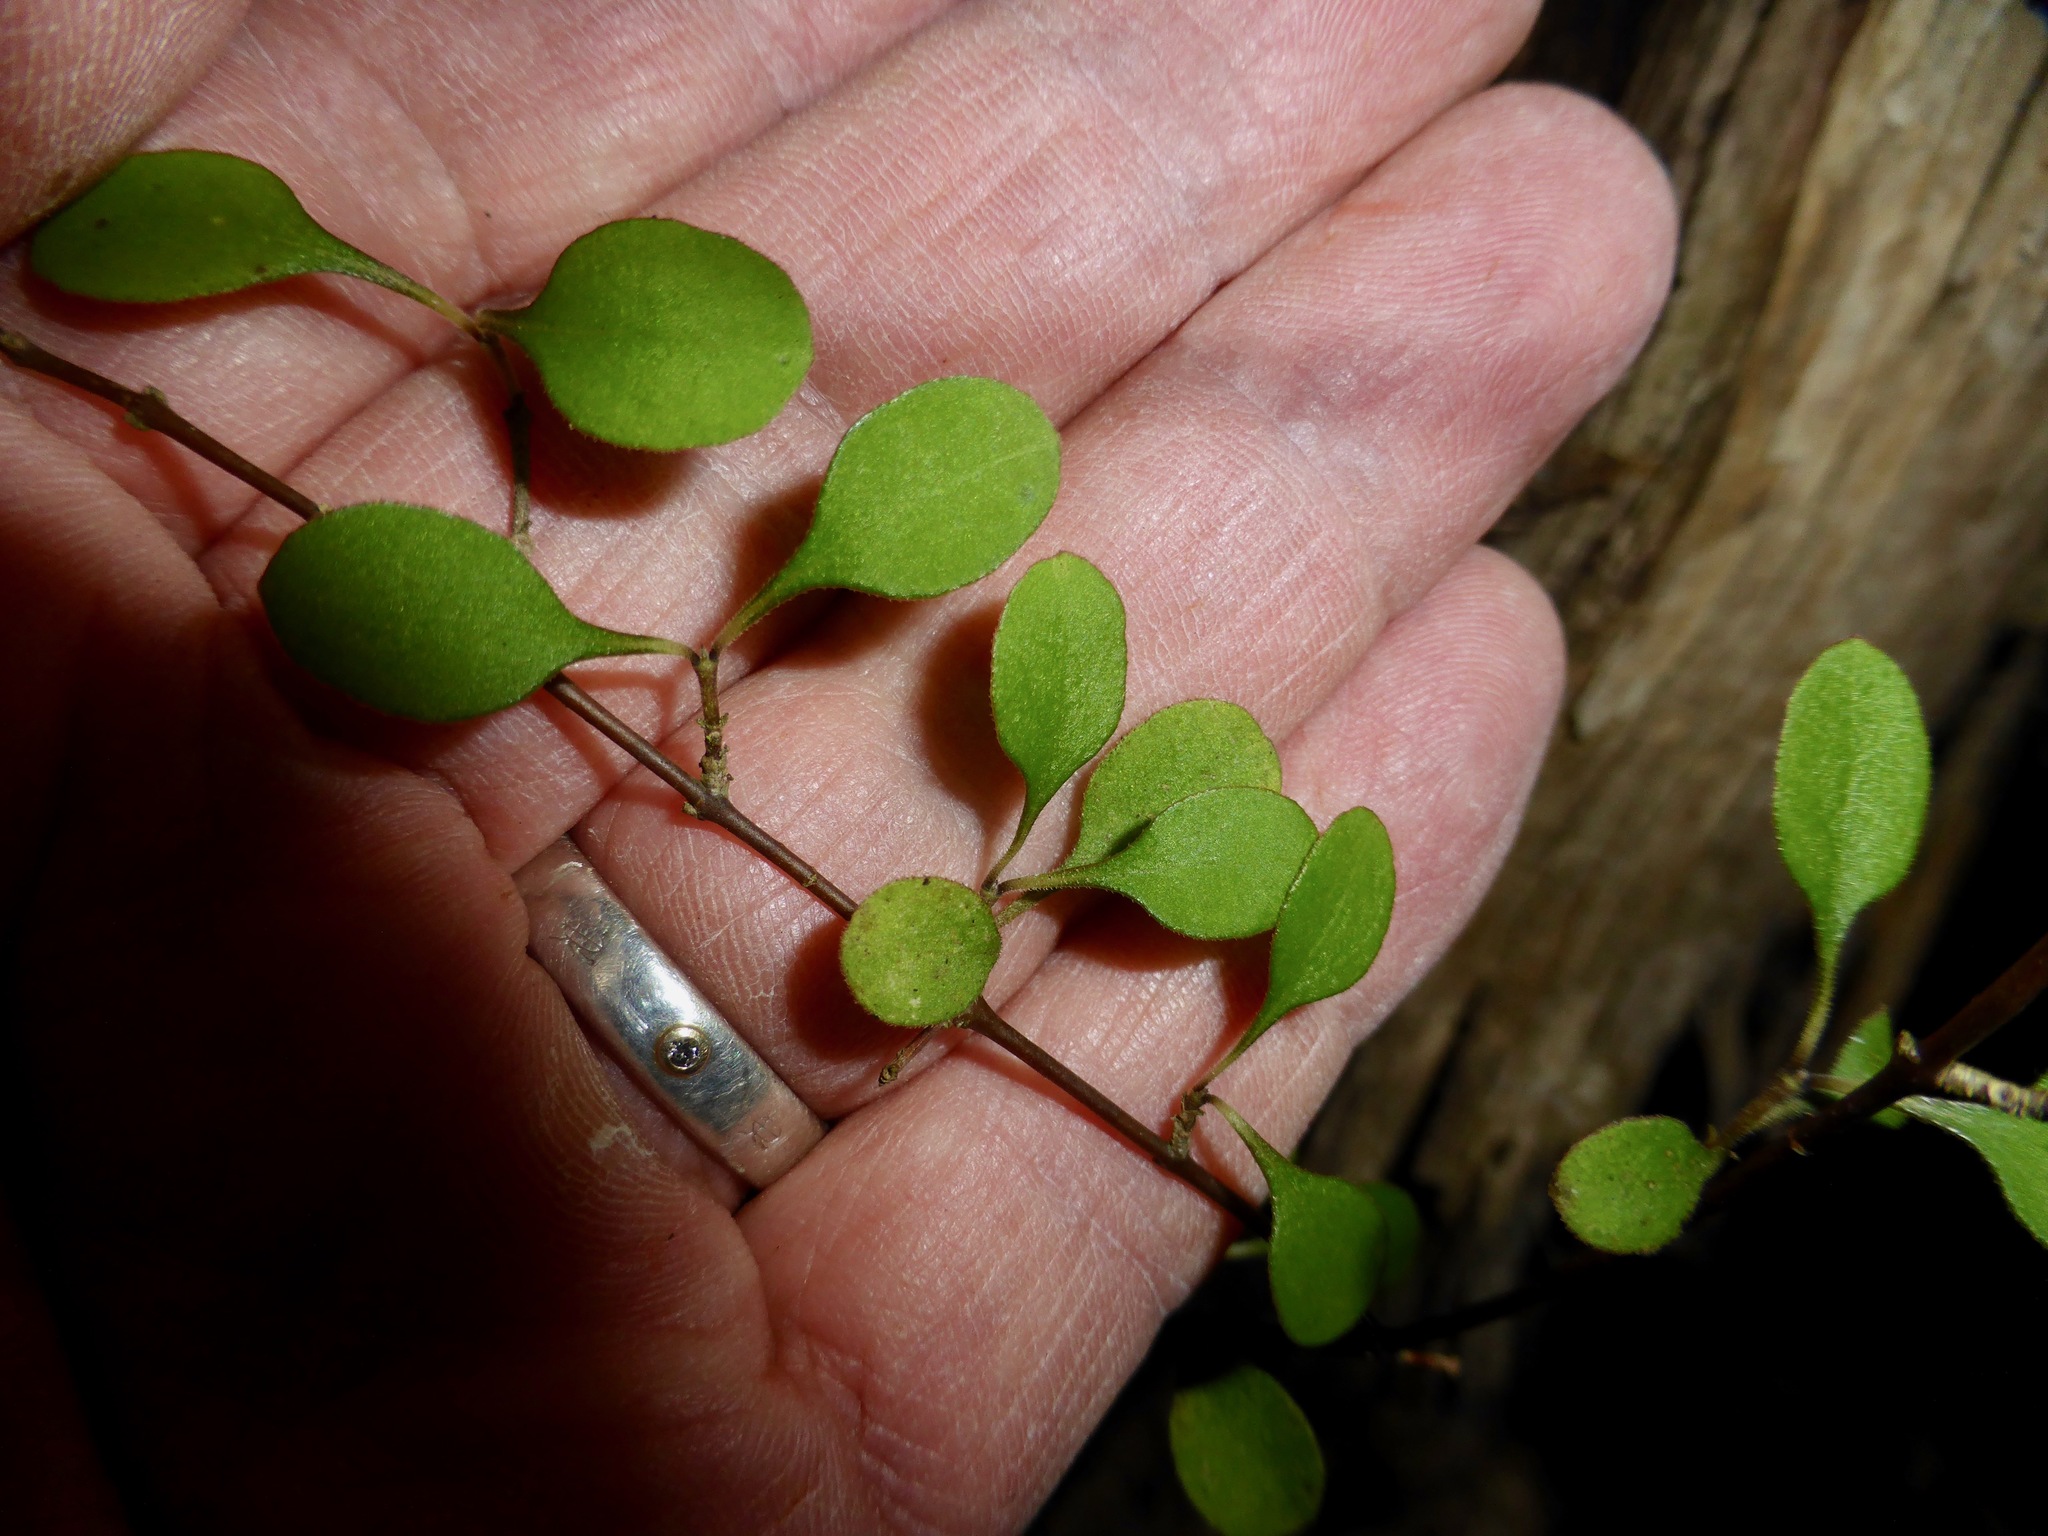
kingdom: Plantae
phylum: Tracheophyta
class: Magnoliopsida
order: Gentianales
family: Rubiaceae
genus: Coprosma
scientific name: Coprosma crassifolia
